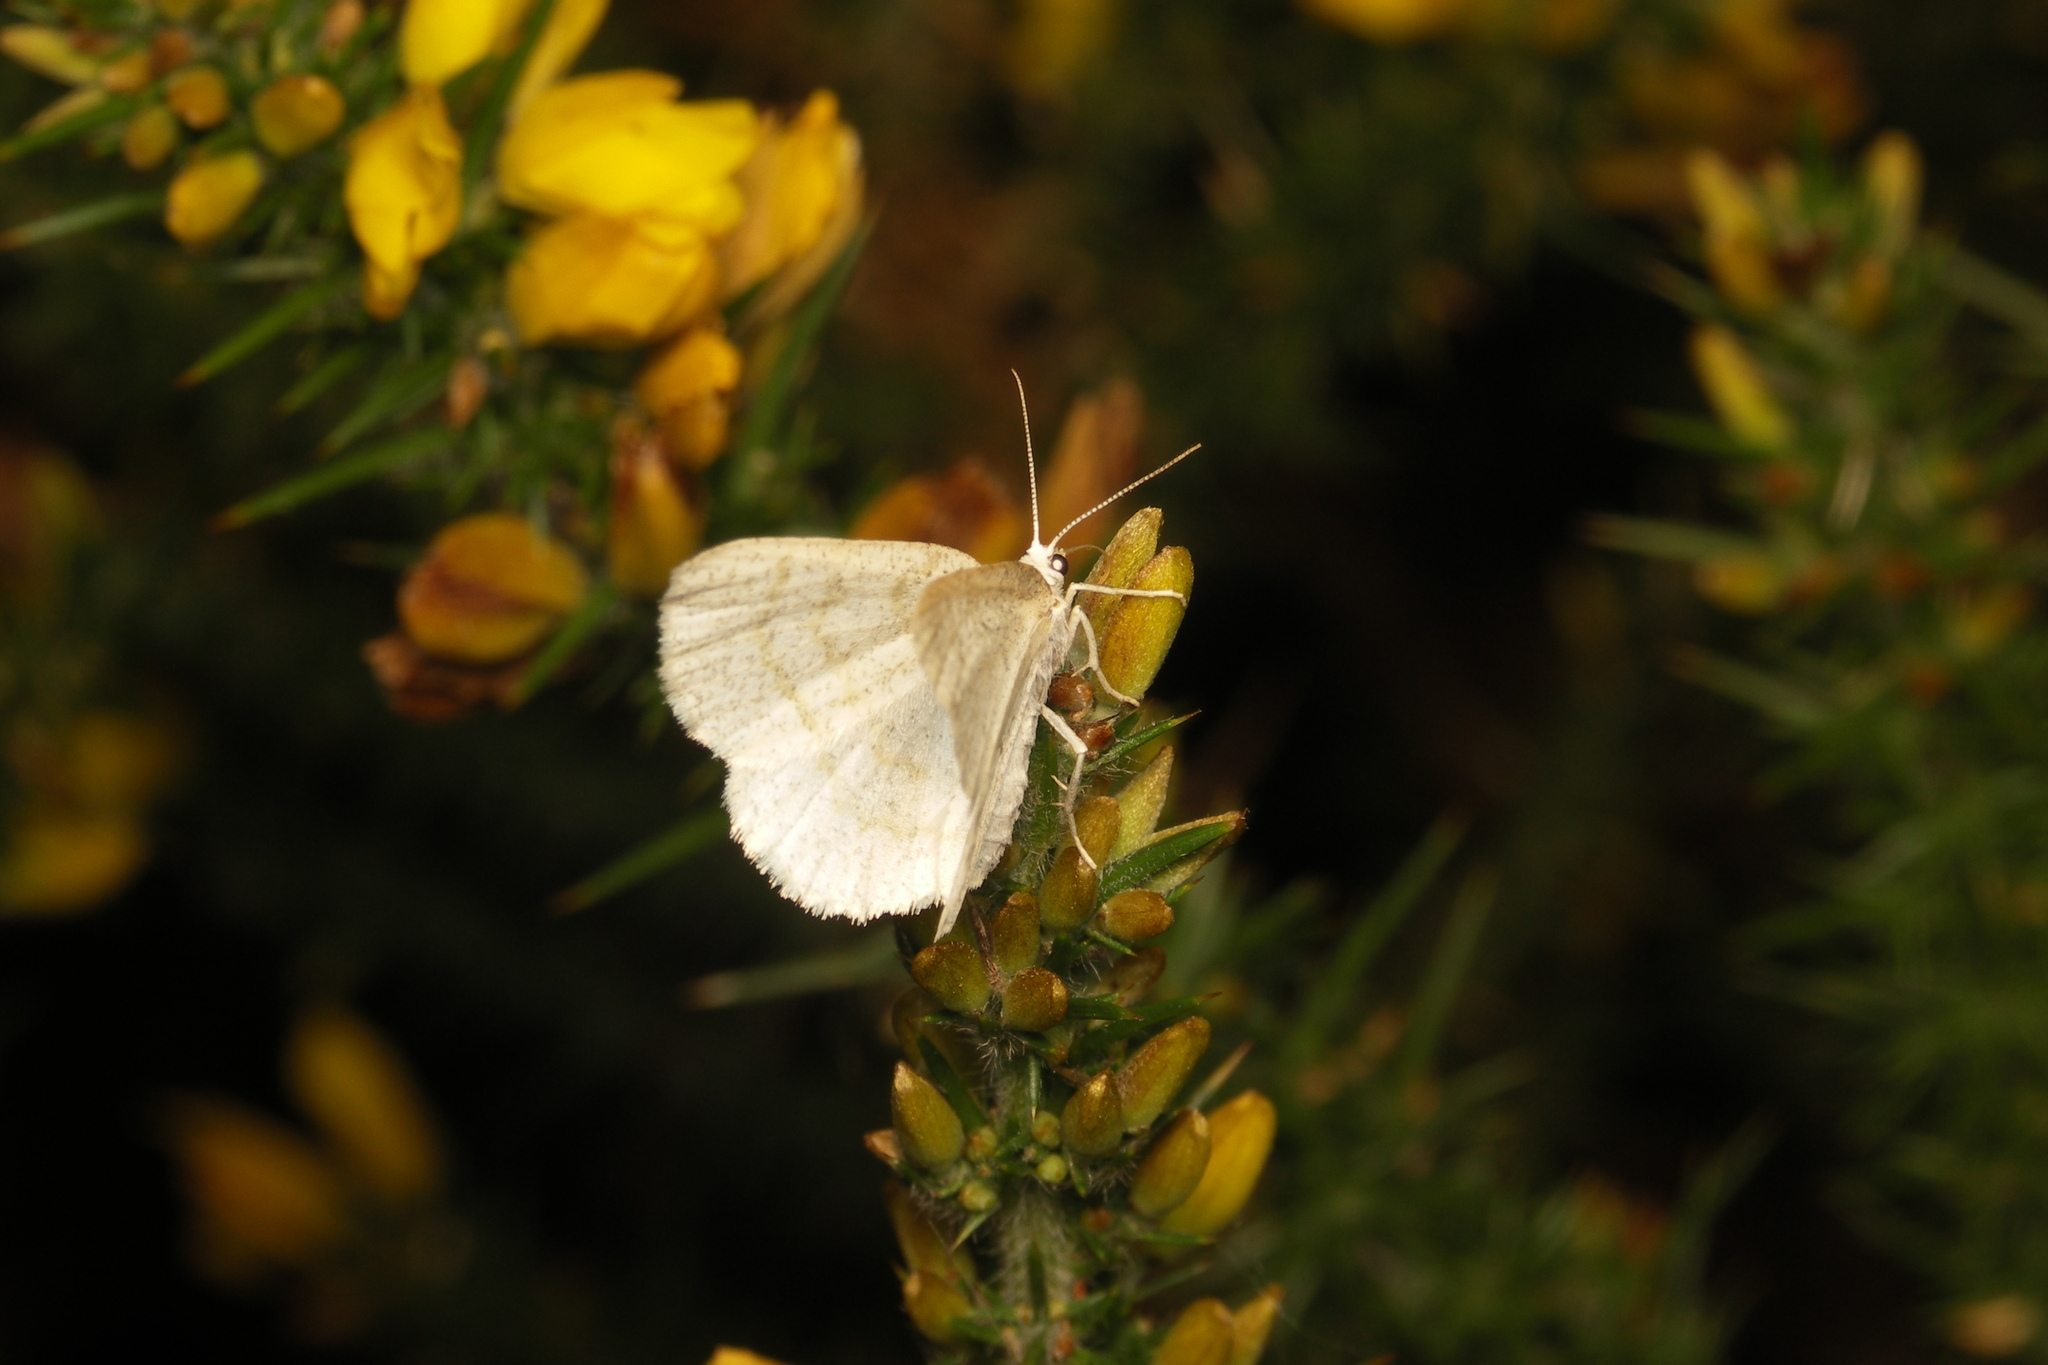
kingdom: Animalia
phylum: Arthropoda
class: Insecta
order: Lepidoptera
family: Geometridae
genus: Cabera
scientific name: Cabera exanthemata
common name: Common wave
